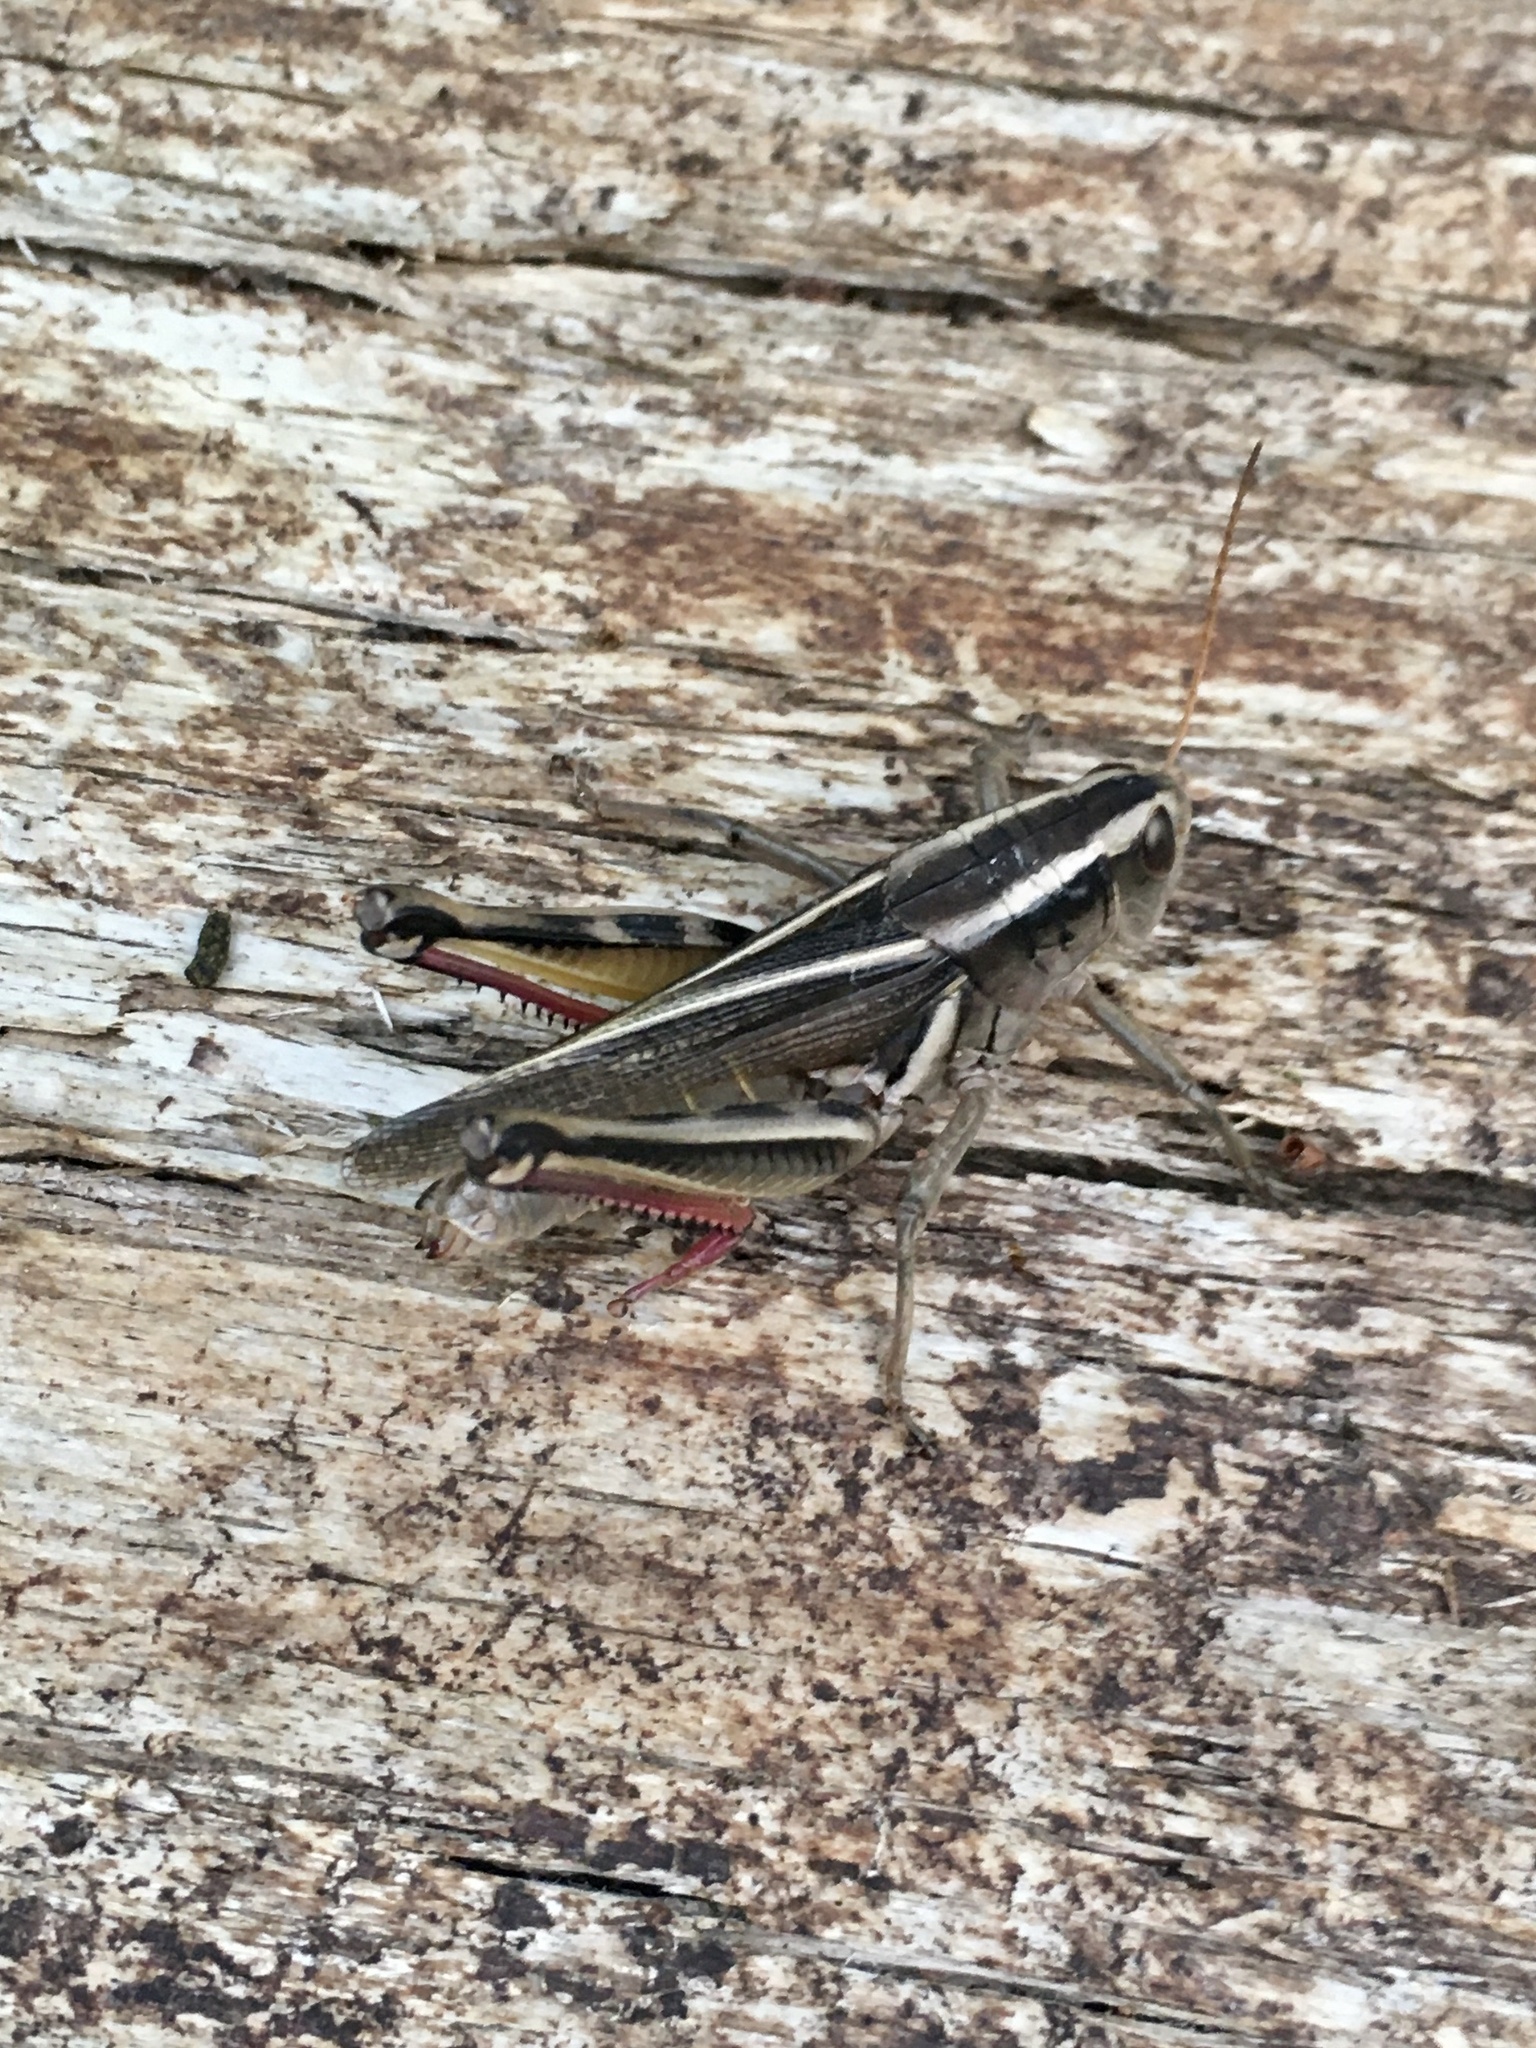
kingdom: Animalia
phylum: Arthropoda
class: Insecta
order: Orthoptera
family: Acrididae
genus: Melanoplus
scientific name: Melanoplus bivittatus
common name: Two-striped grasshopper
